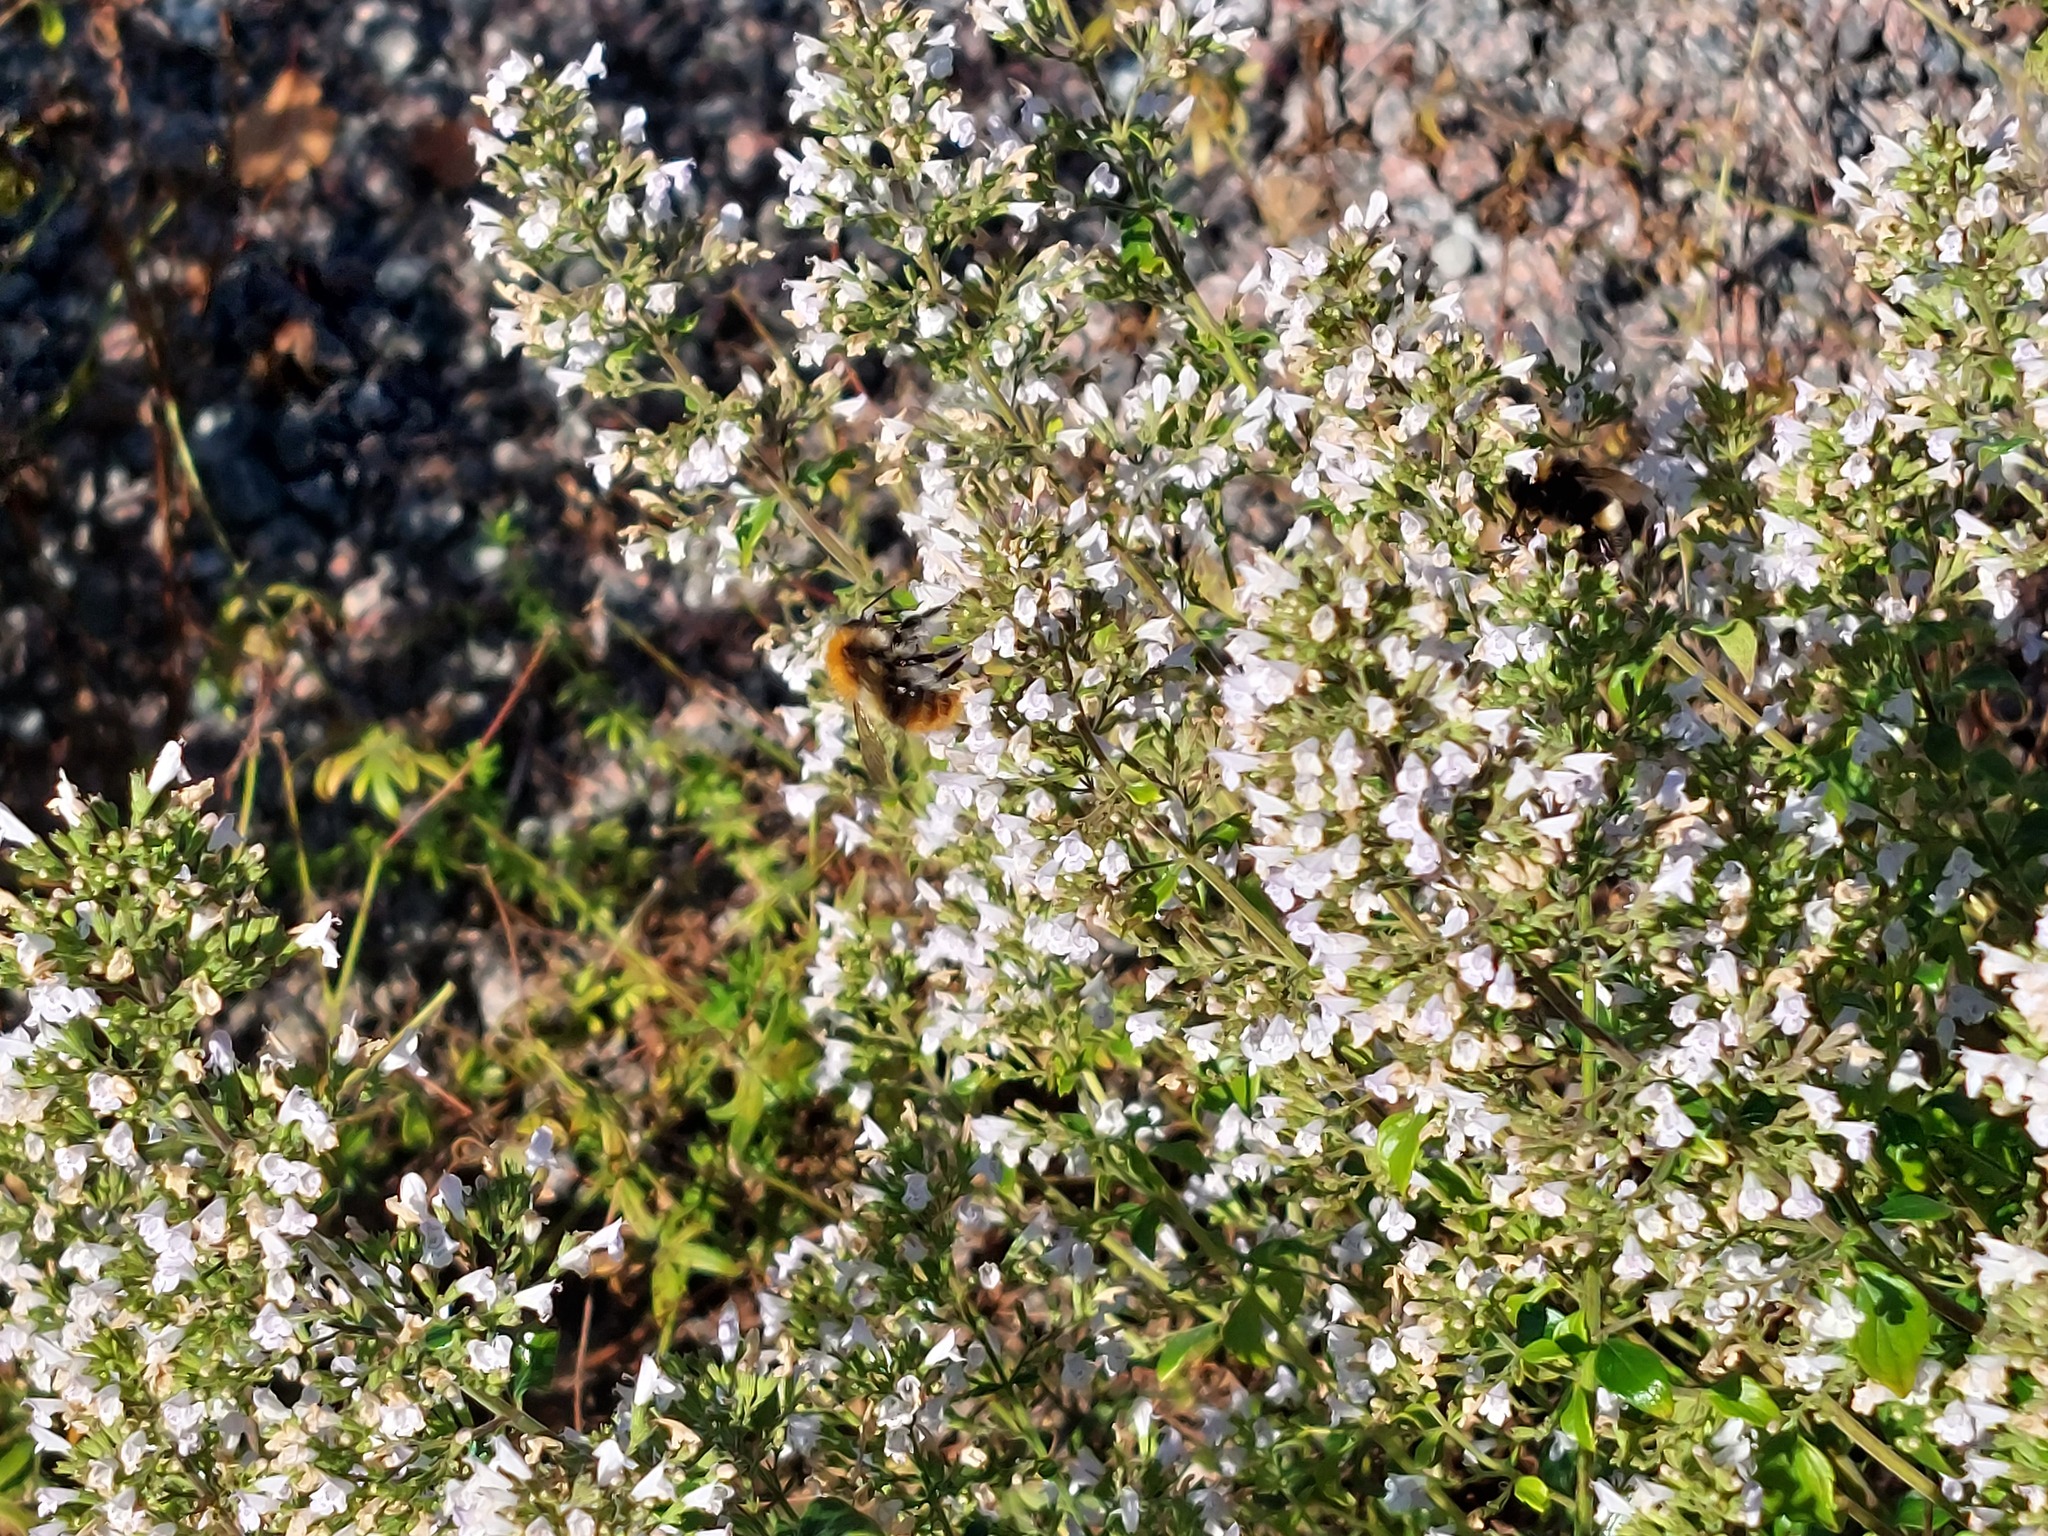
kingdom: Animalia
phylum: Arthropoda
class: Insecta
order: Hymenoptera
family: Apidae
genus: Bombus
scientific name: Bombus pascuorum
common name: Common carder bee
